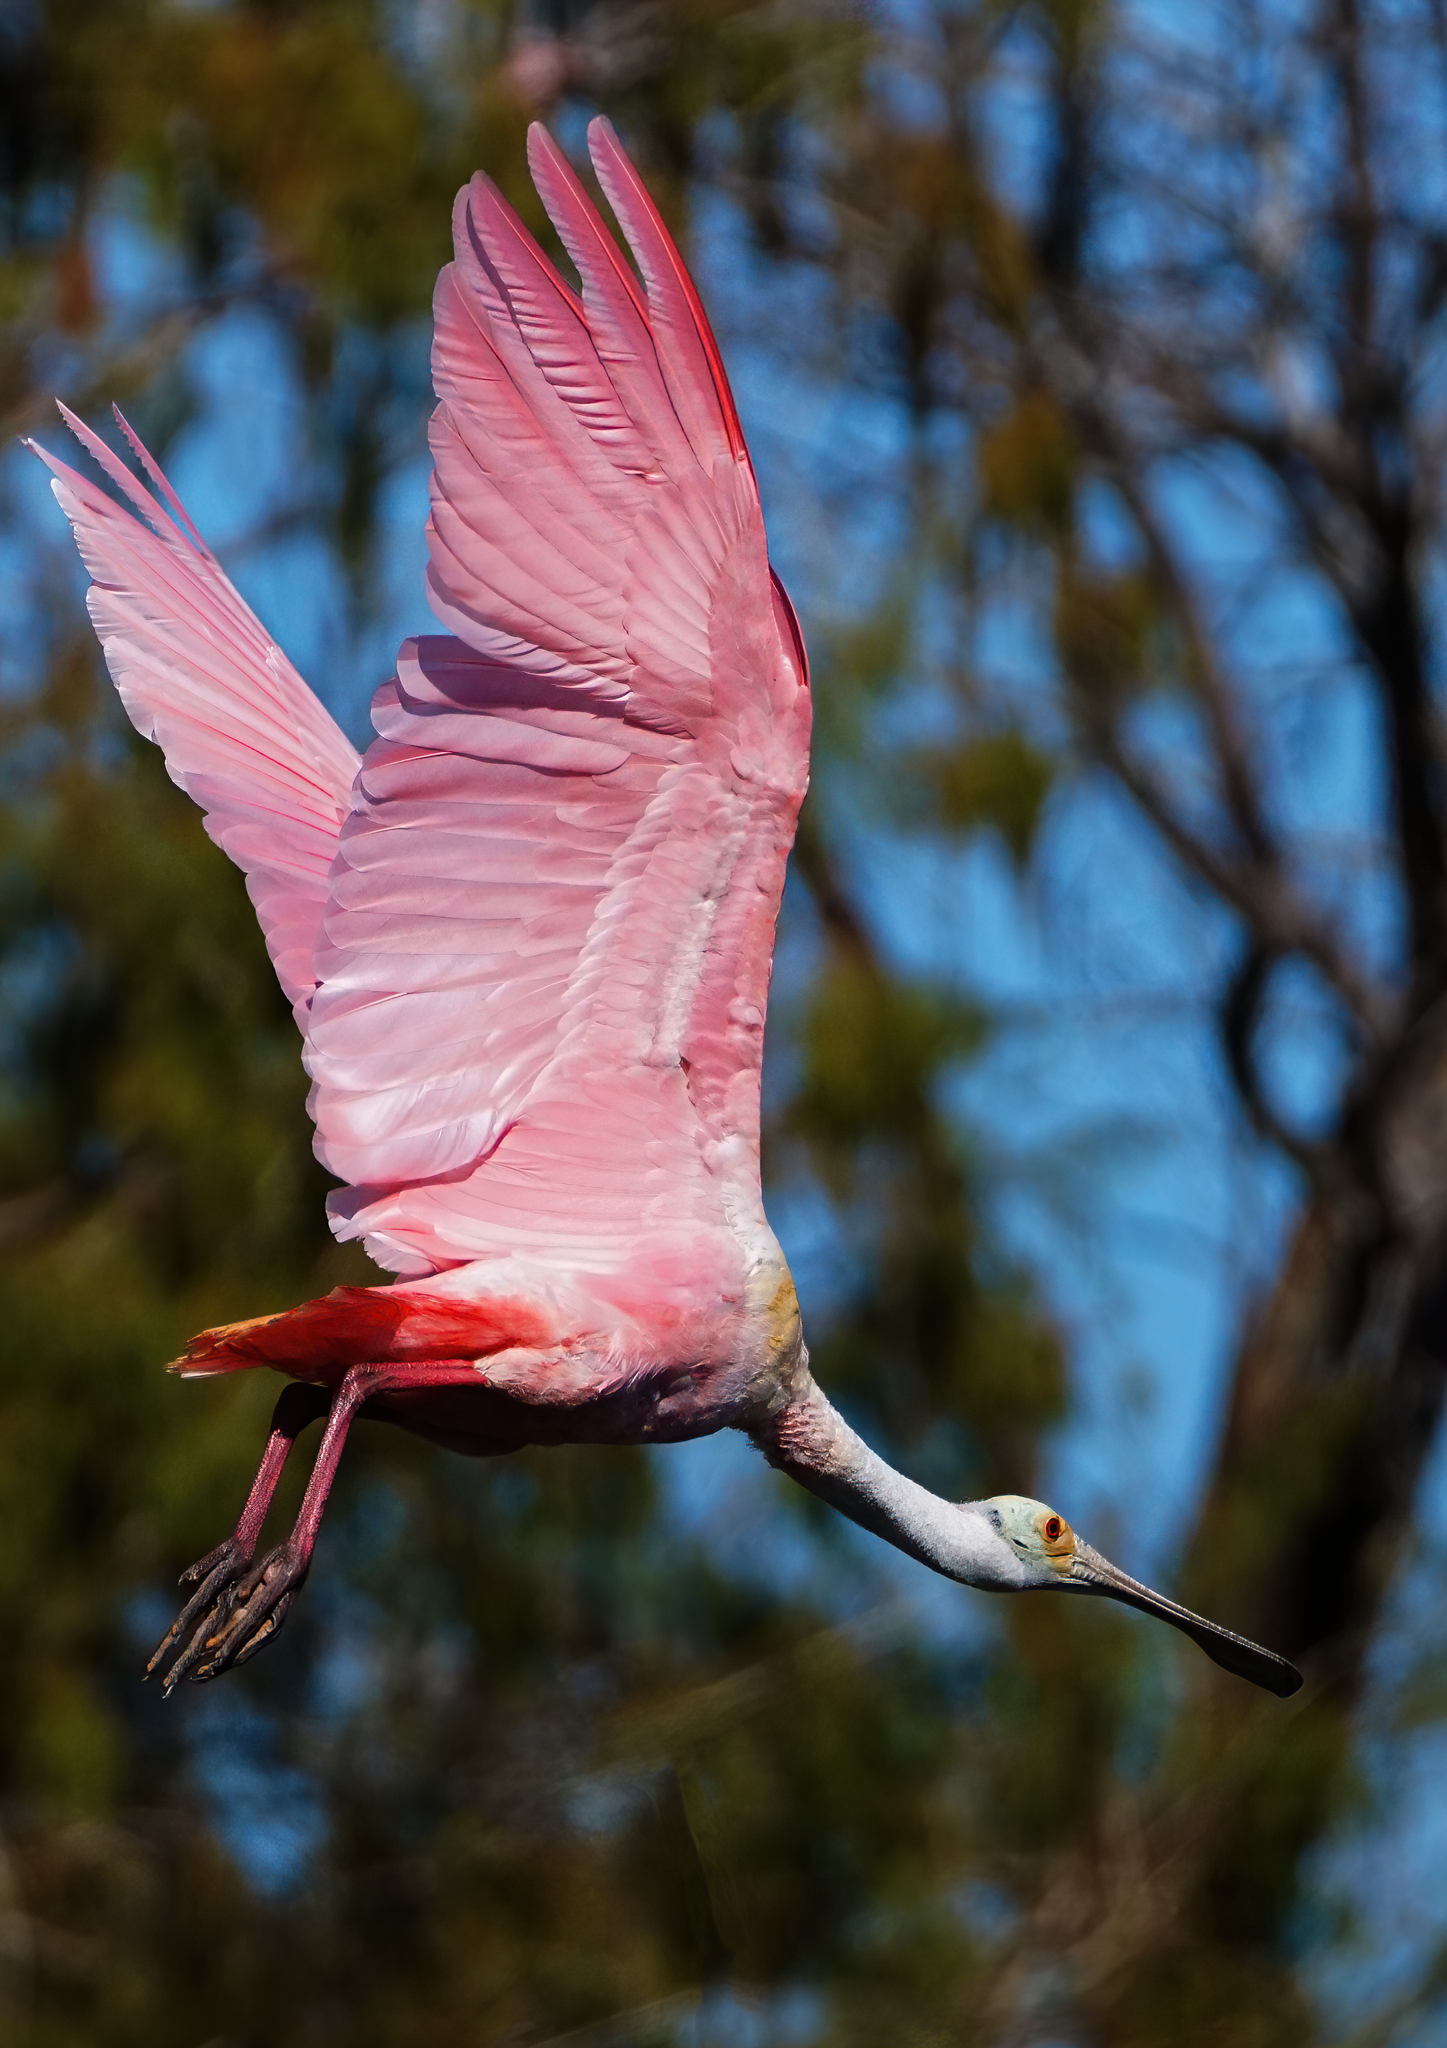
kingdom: Animalia
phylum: Chordata
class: Aves
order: Pelecaniformes
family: Threskiornithidae
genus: Platalea
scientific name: Platalea ajaja
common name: Roseate spoonbill
